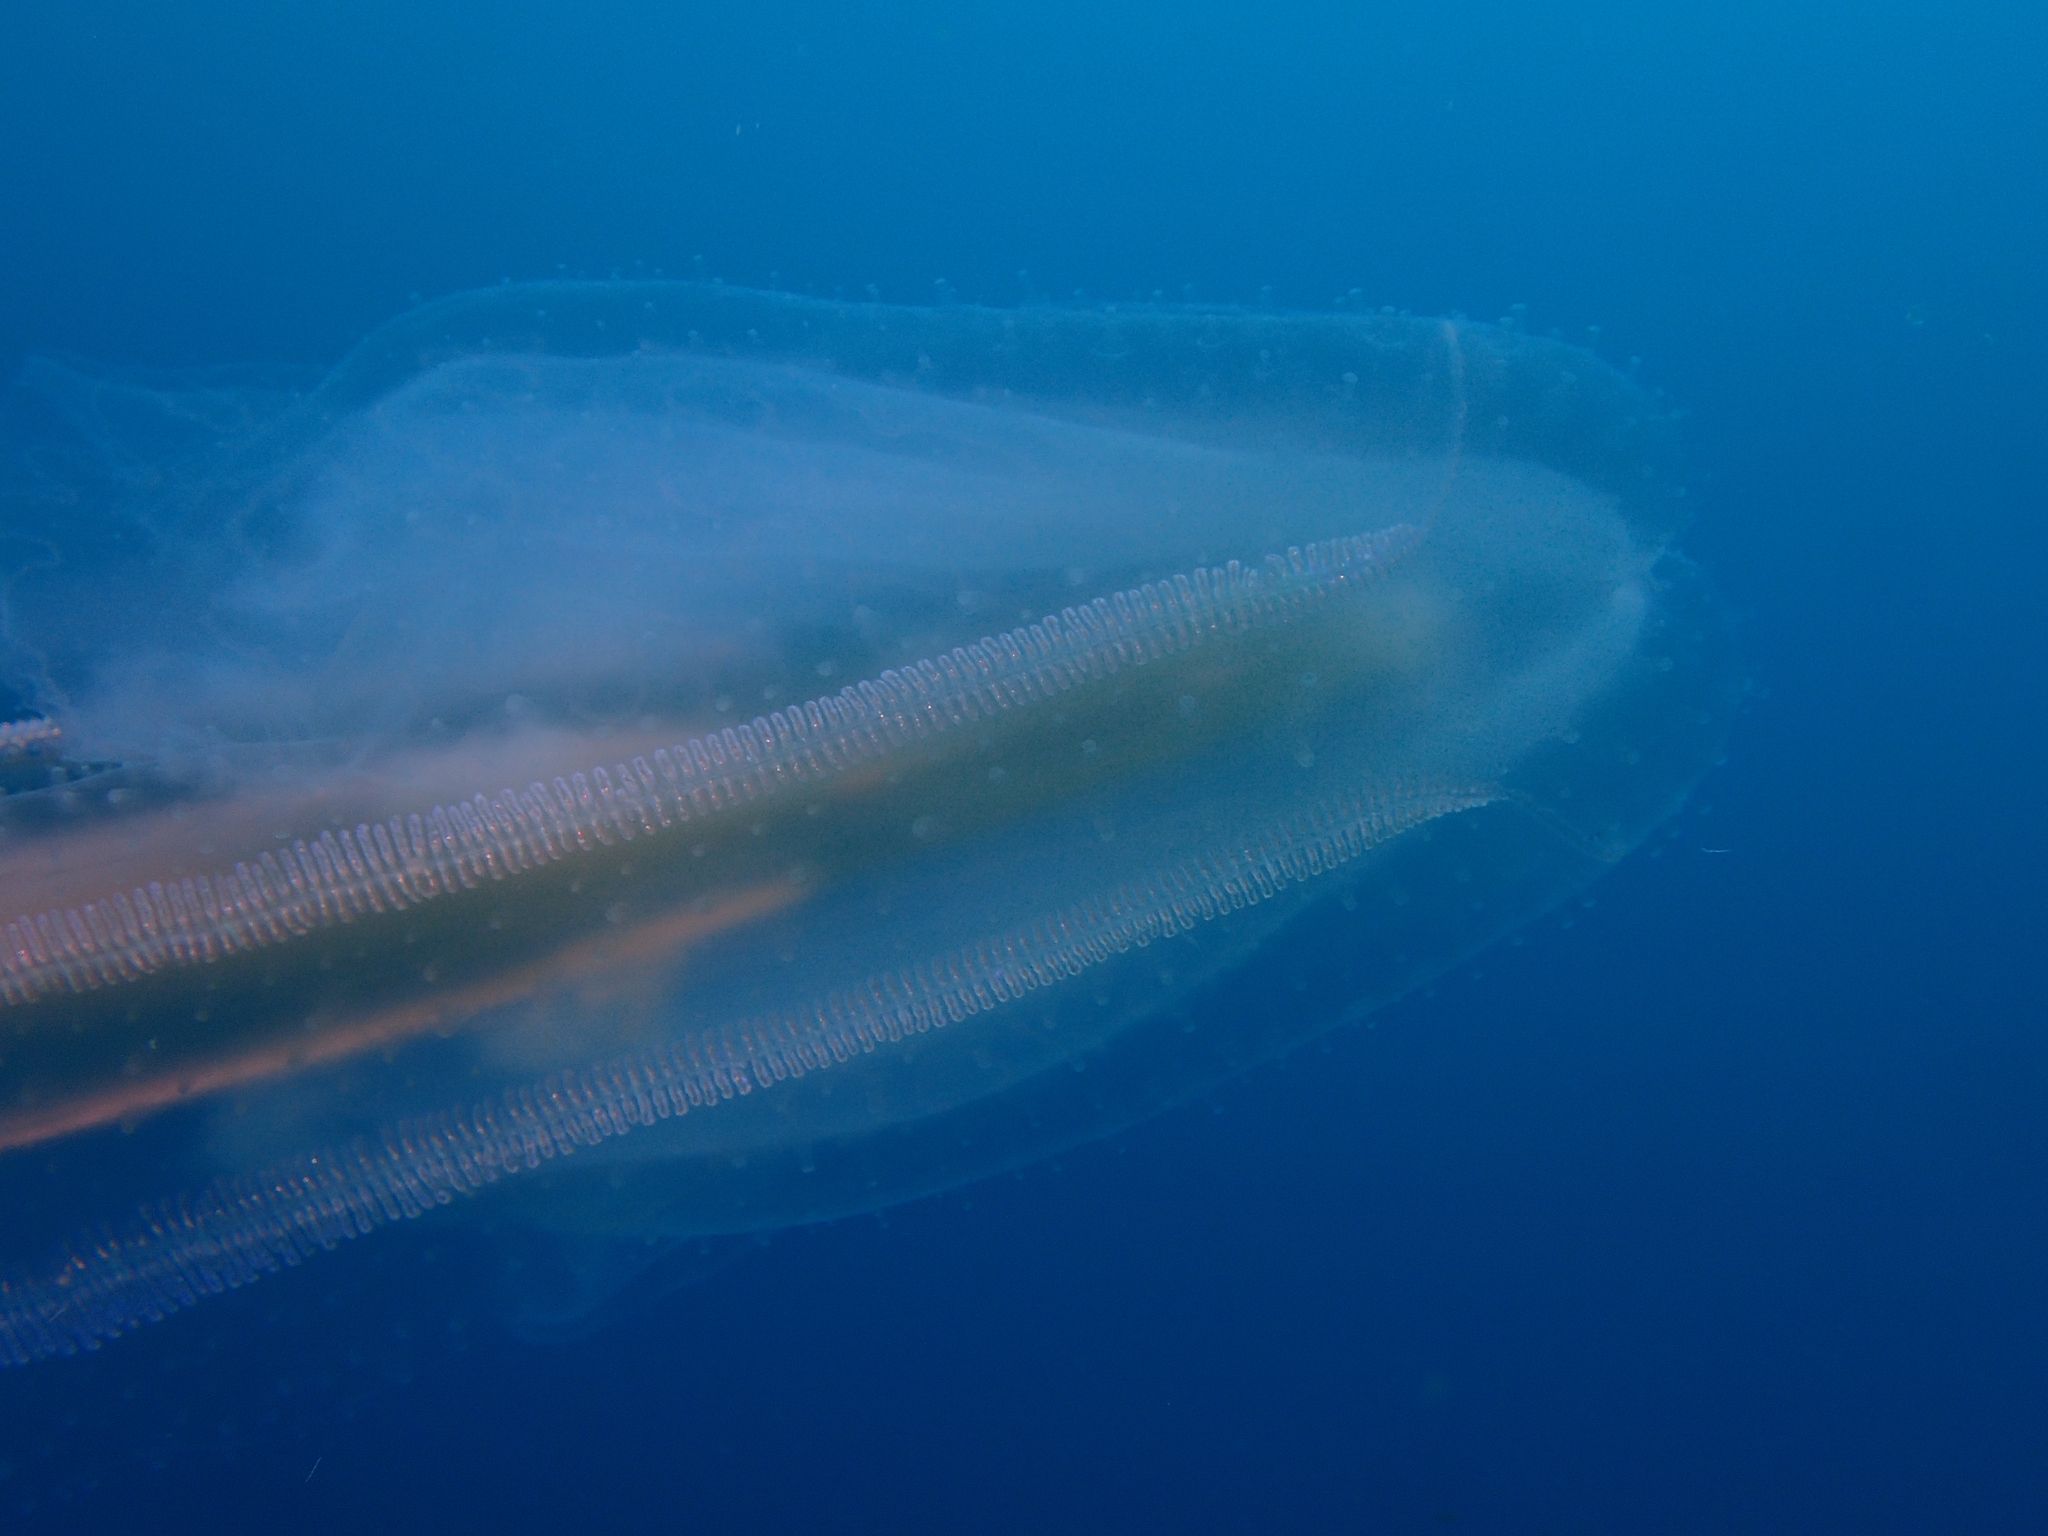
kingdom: Animalia
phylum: Ctenophora
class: Tentaculata
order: Lobata
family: Leucotheidae
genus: Leucothea
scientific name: Leucothea multicornis
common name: Vitreous lobate comb-jelly
